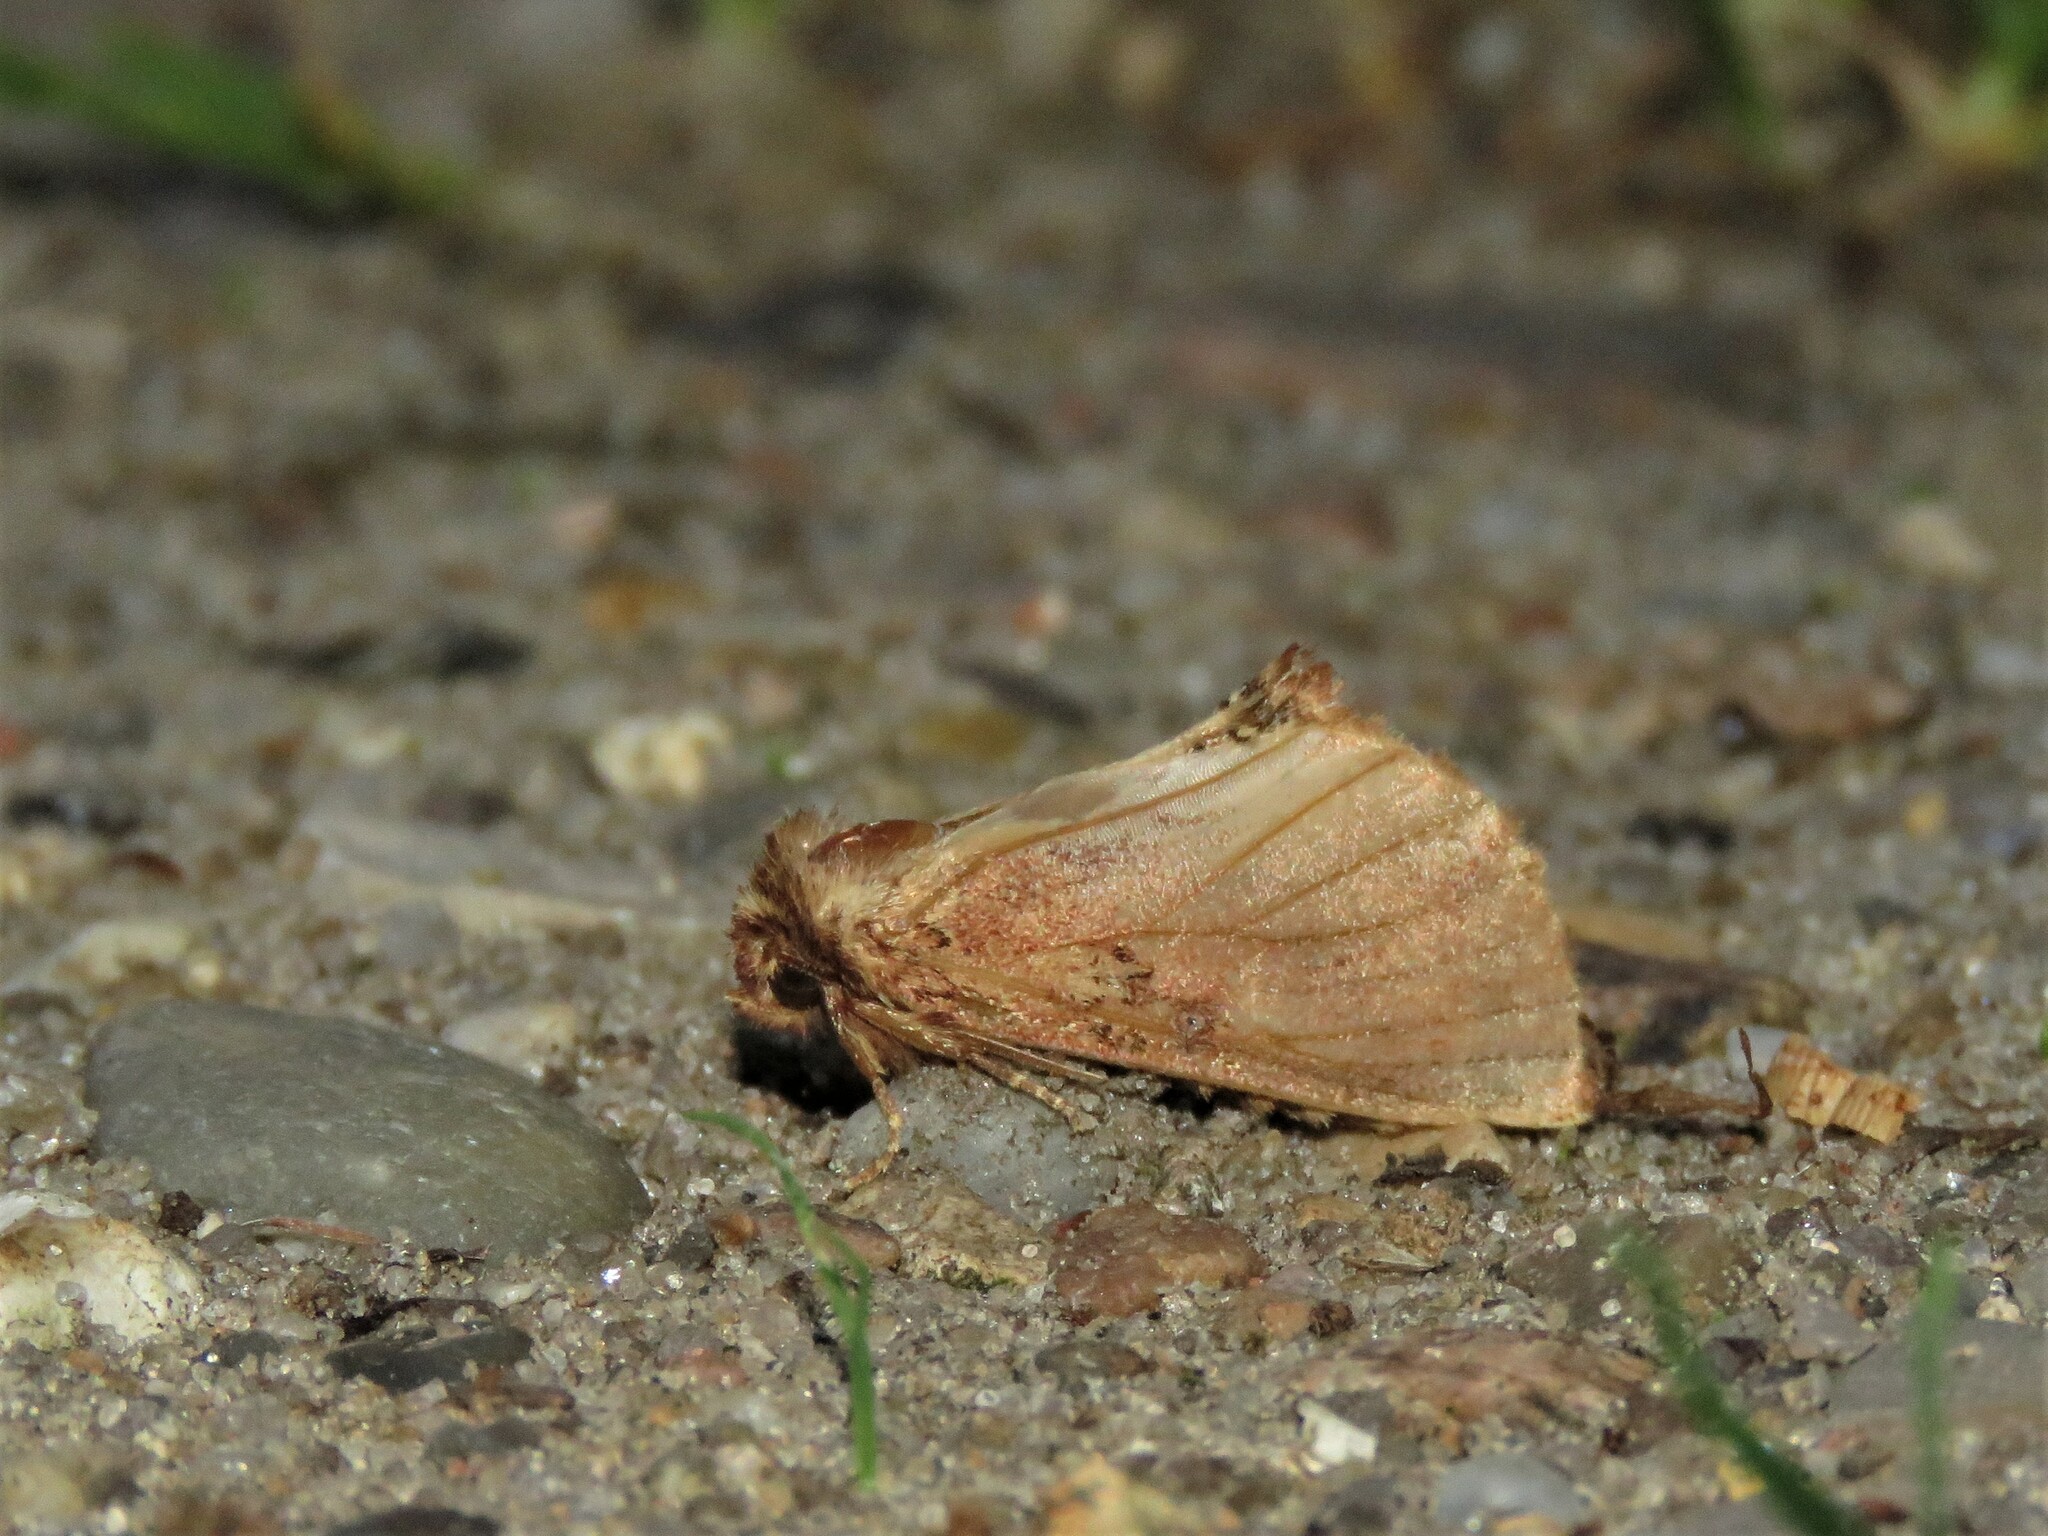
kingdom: Animalia
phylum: Arthropoda
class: Insecta
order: Lepidoptera
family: Notodontidae
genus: Ptilodon
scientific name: Ptilodon capucina
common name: Coxcomb prominent
